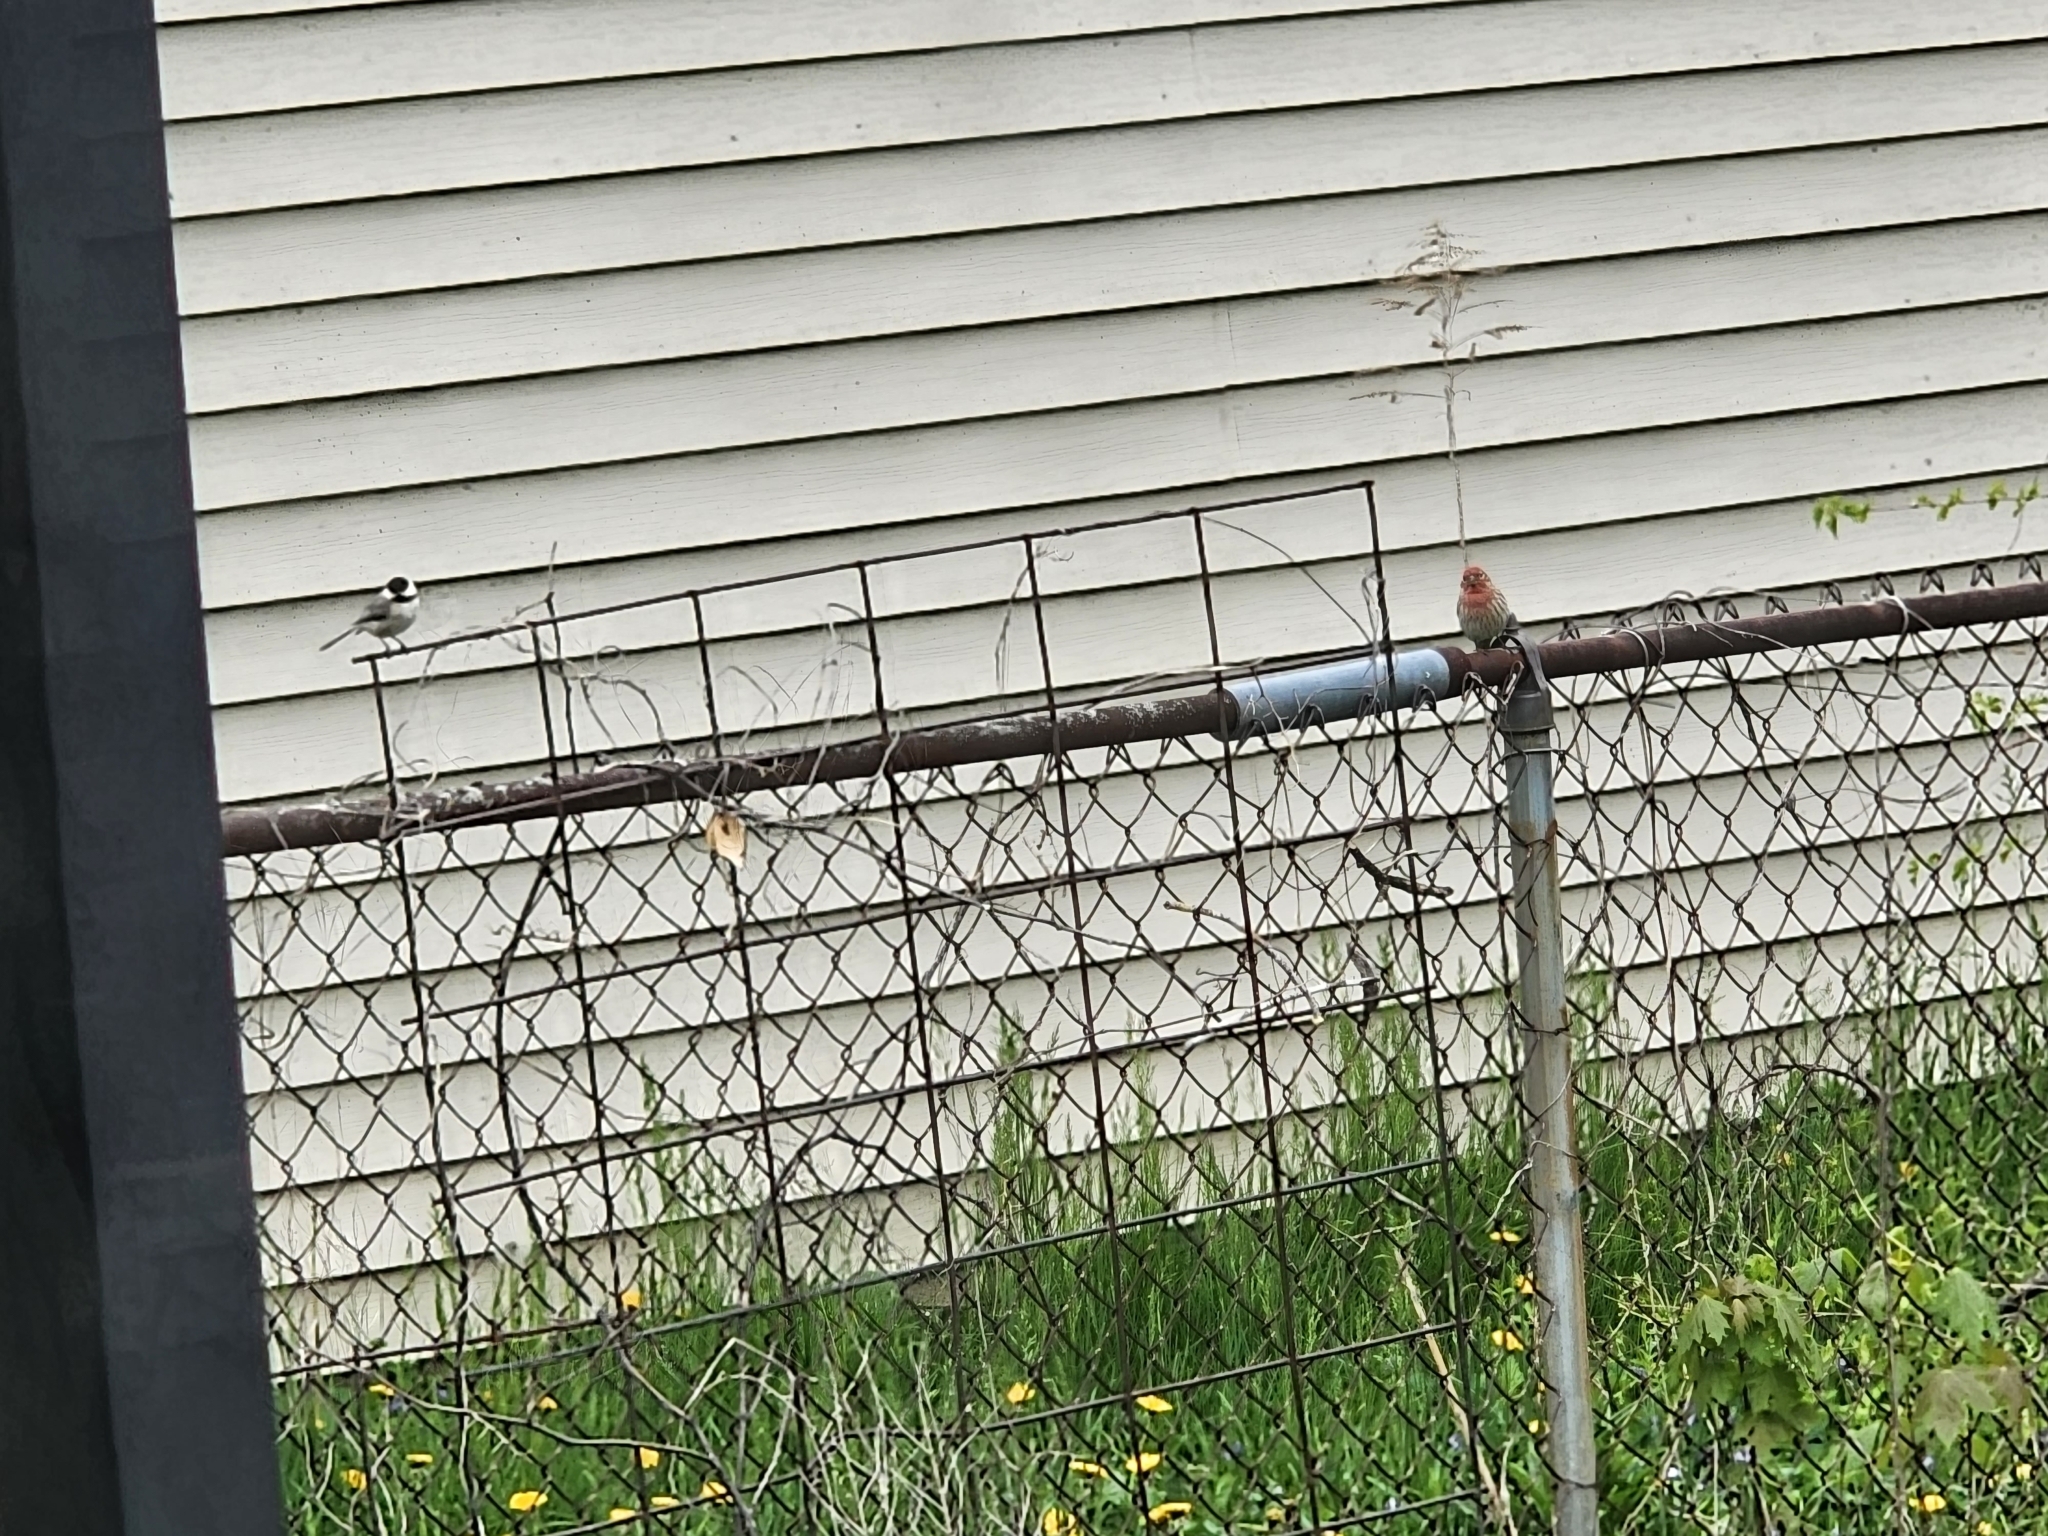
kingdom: Animalia
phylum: Chordata
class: Aves
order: Passeriformes
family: Fringillidae
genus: Haemorhous
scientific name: Haemorhous mexicanus
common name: House finch
